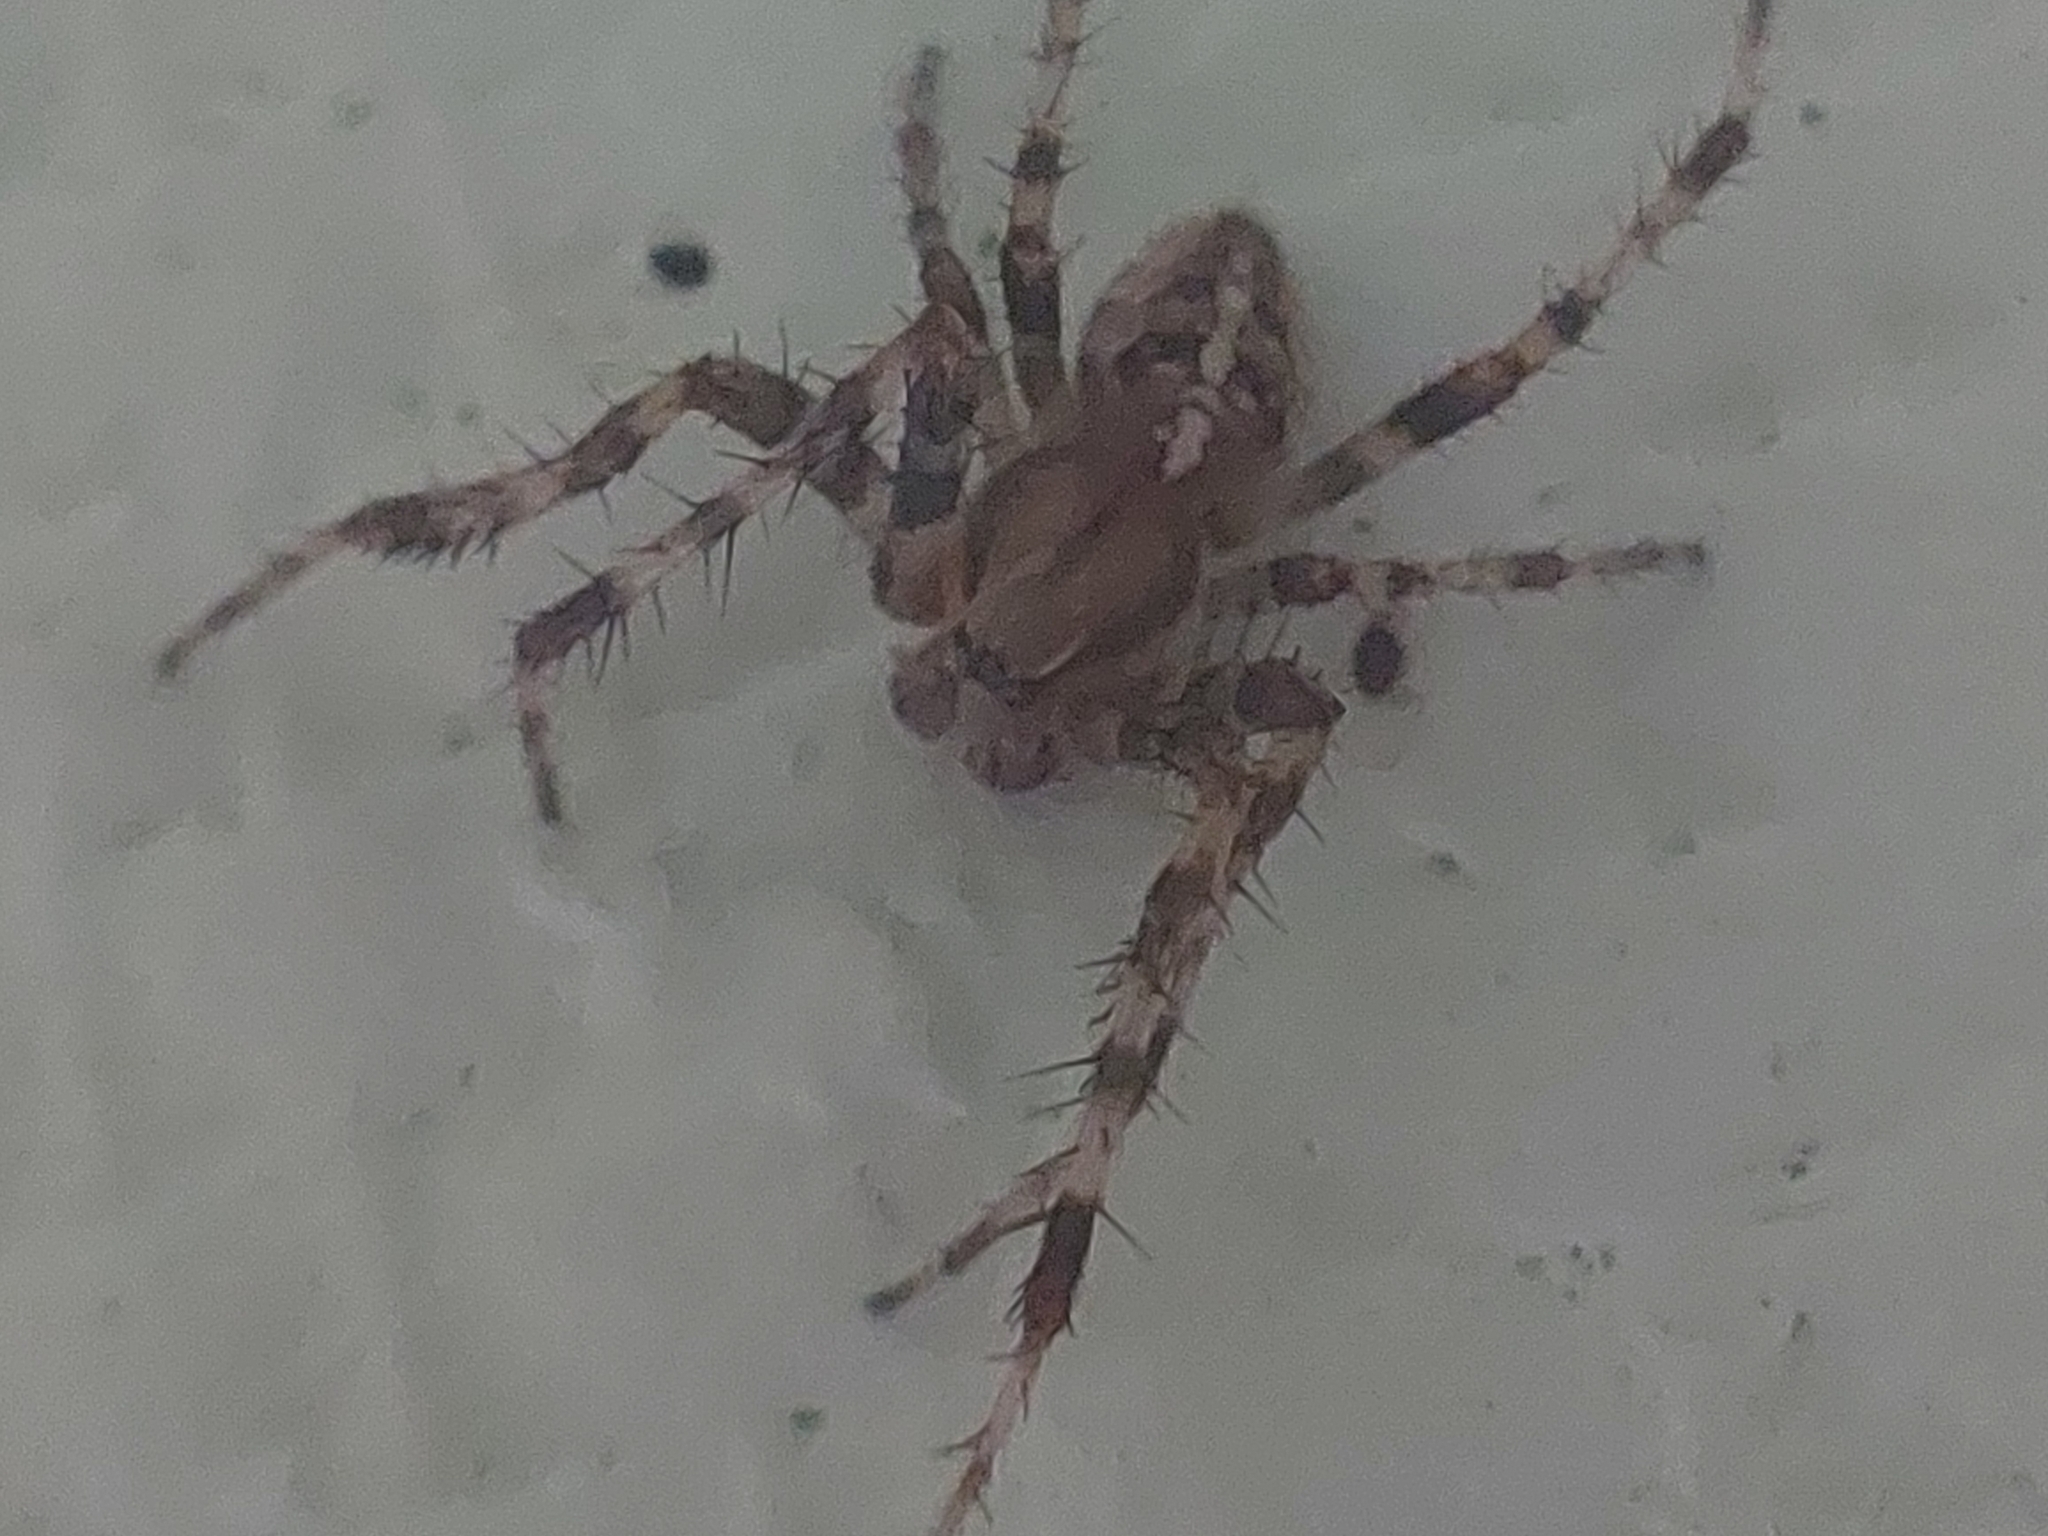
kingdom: Animalia
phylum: Arthropoda
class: Arachnida
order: Araneae
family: Araneidae
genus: Araneus
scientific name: Araneus diadematus
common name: Cross orbweaver
